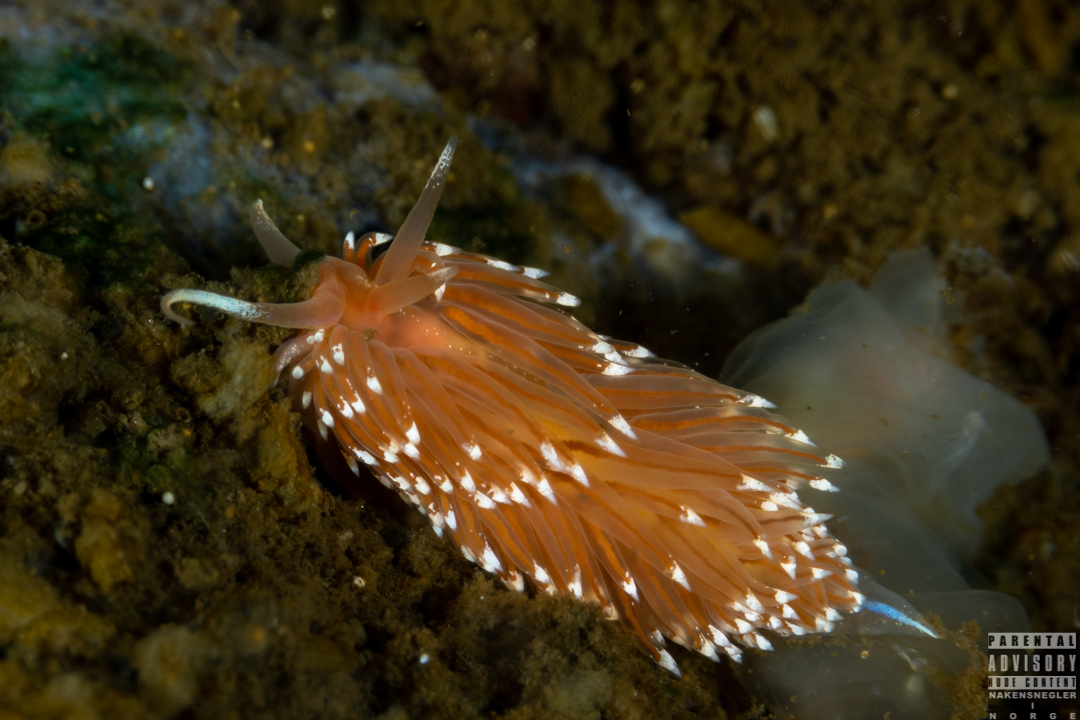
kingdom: Animalia
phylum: Mollusca
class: Gastropoda
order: Nudibranchia
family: Facelinidae
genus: Facelina
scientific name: Facelina bostoniensis
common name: Boston facelina
